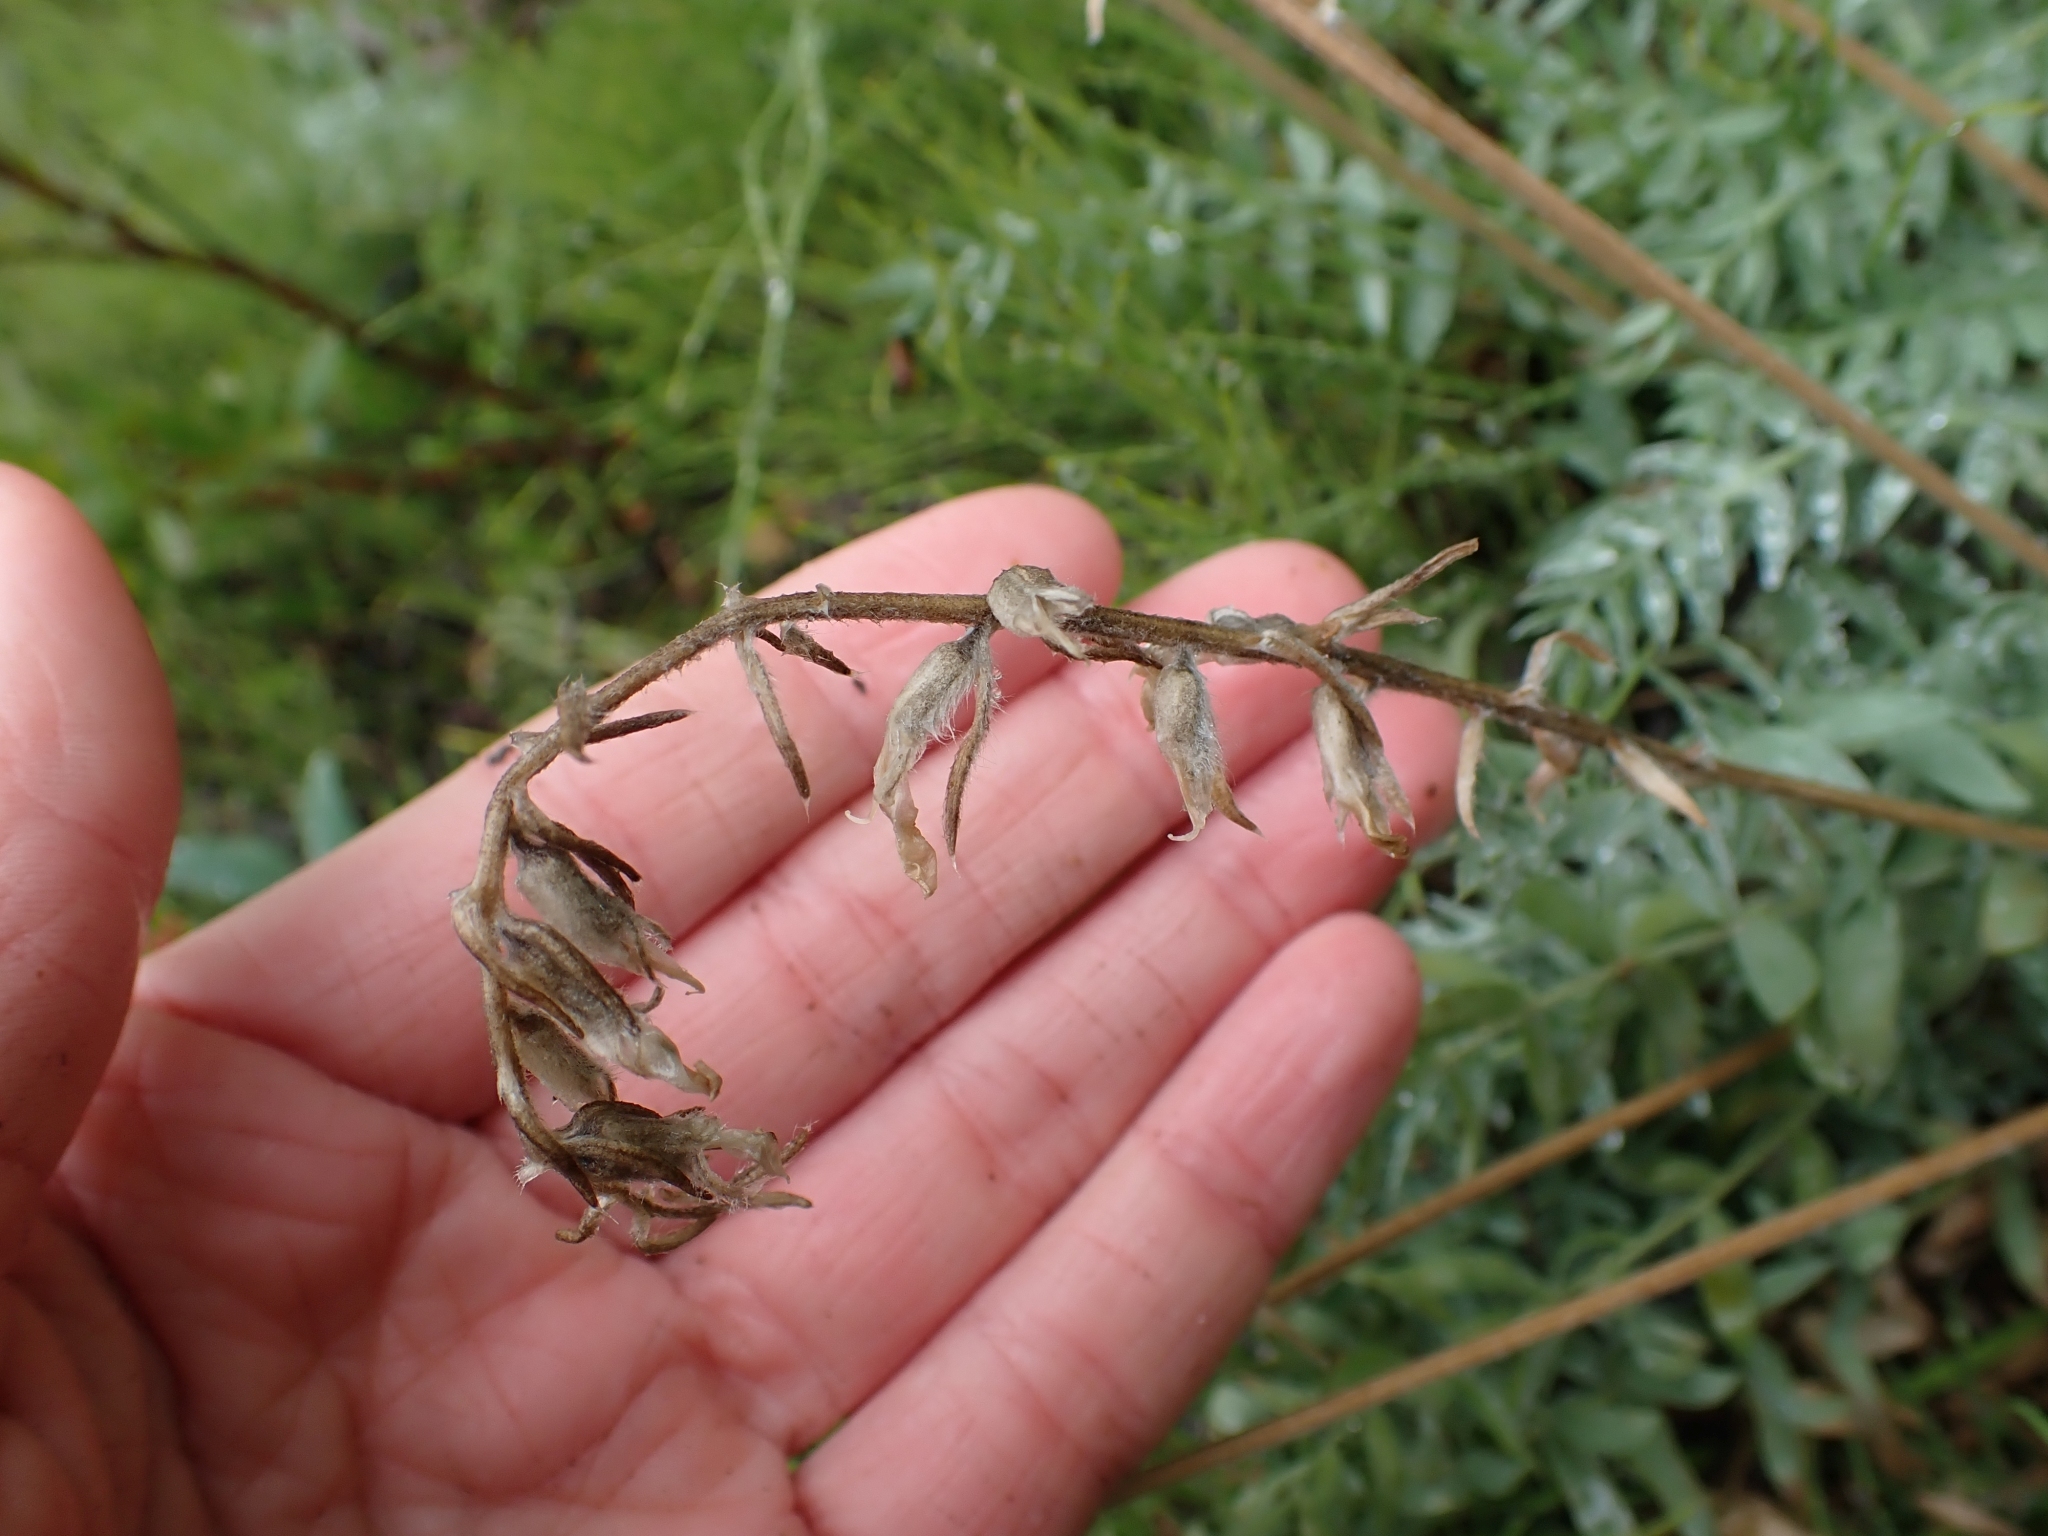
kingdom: Plantae
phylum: Tracheophyta
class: Magnoliopsida
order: Fabales
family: Fabaceae
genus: Oxytropis
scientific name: Oxytropis splendens
